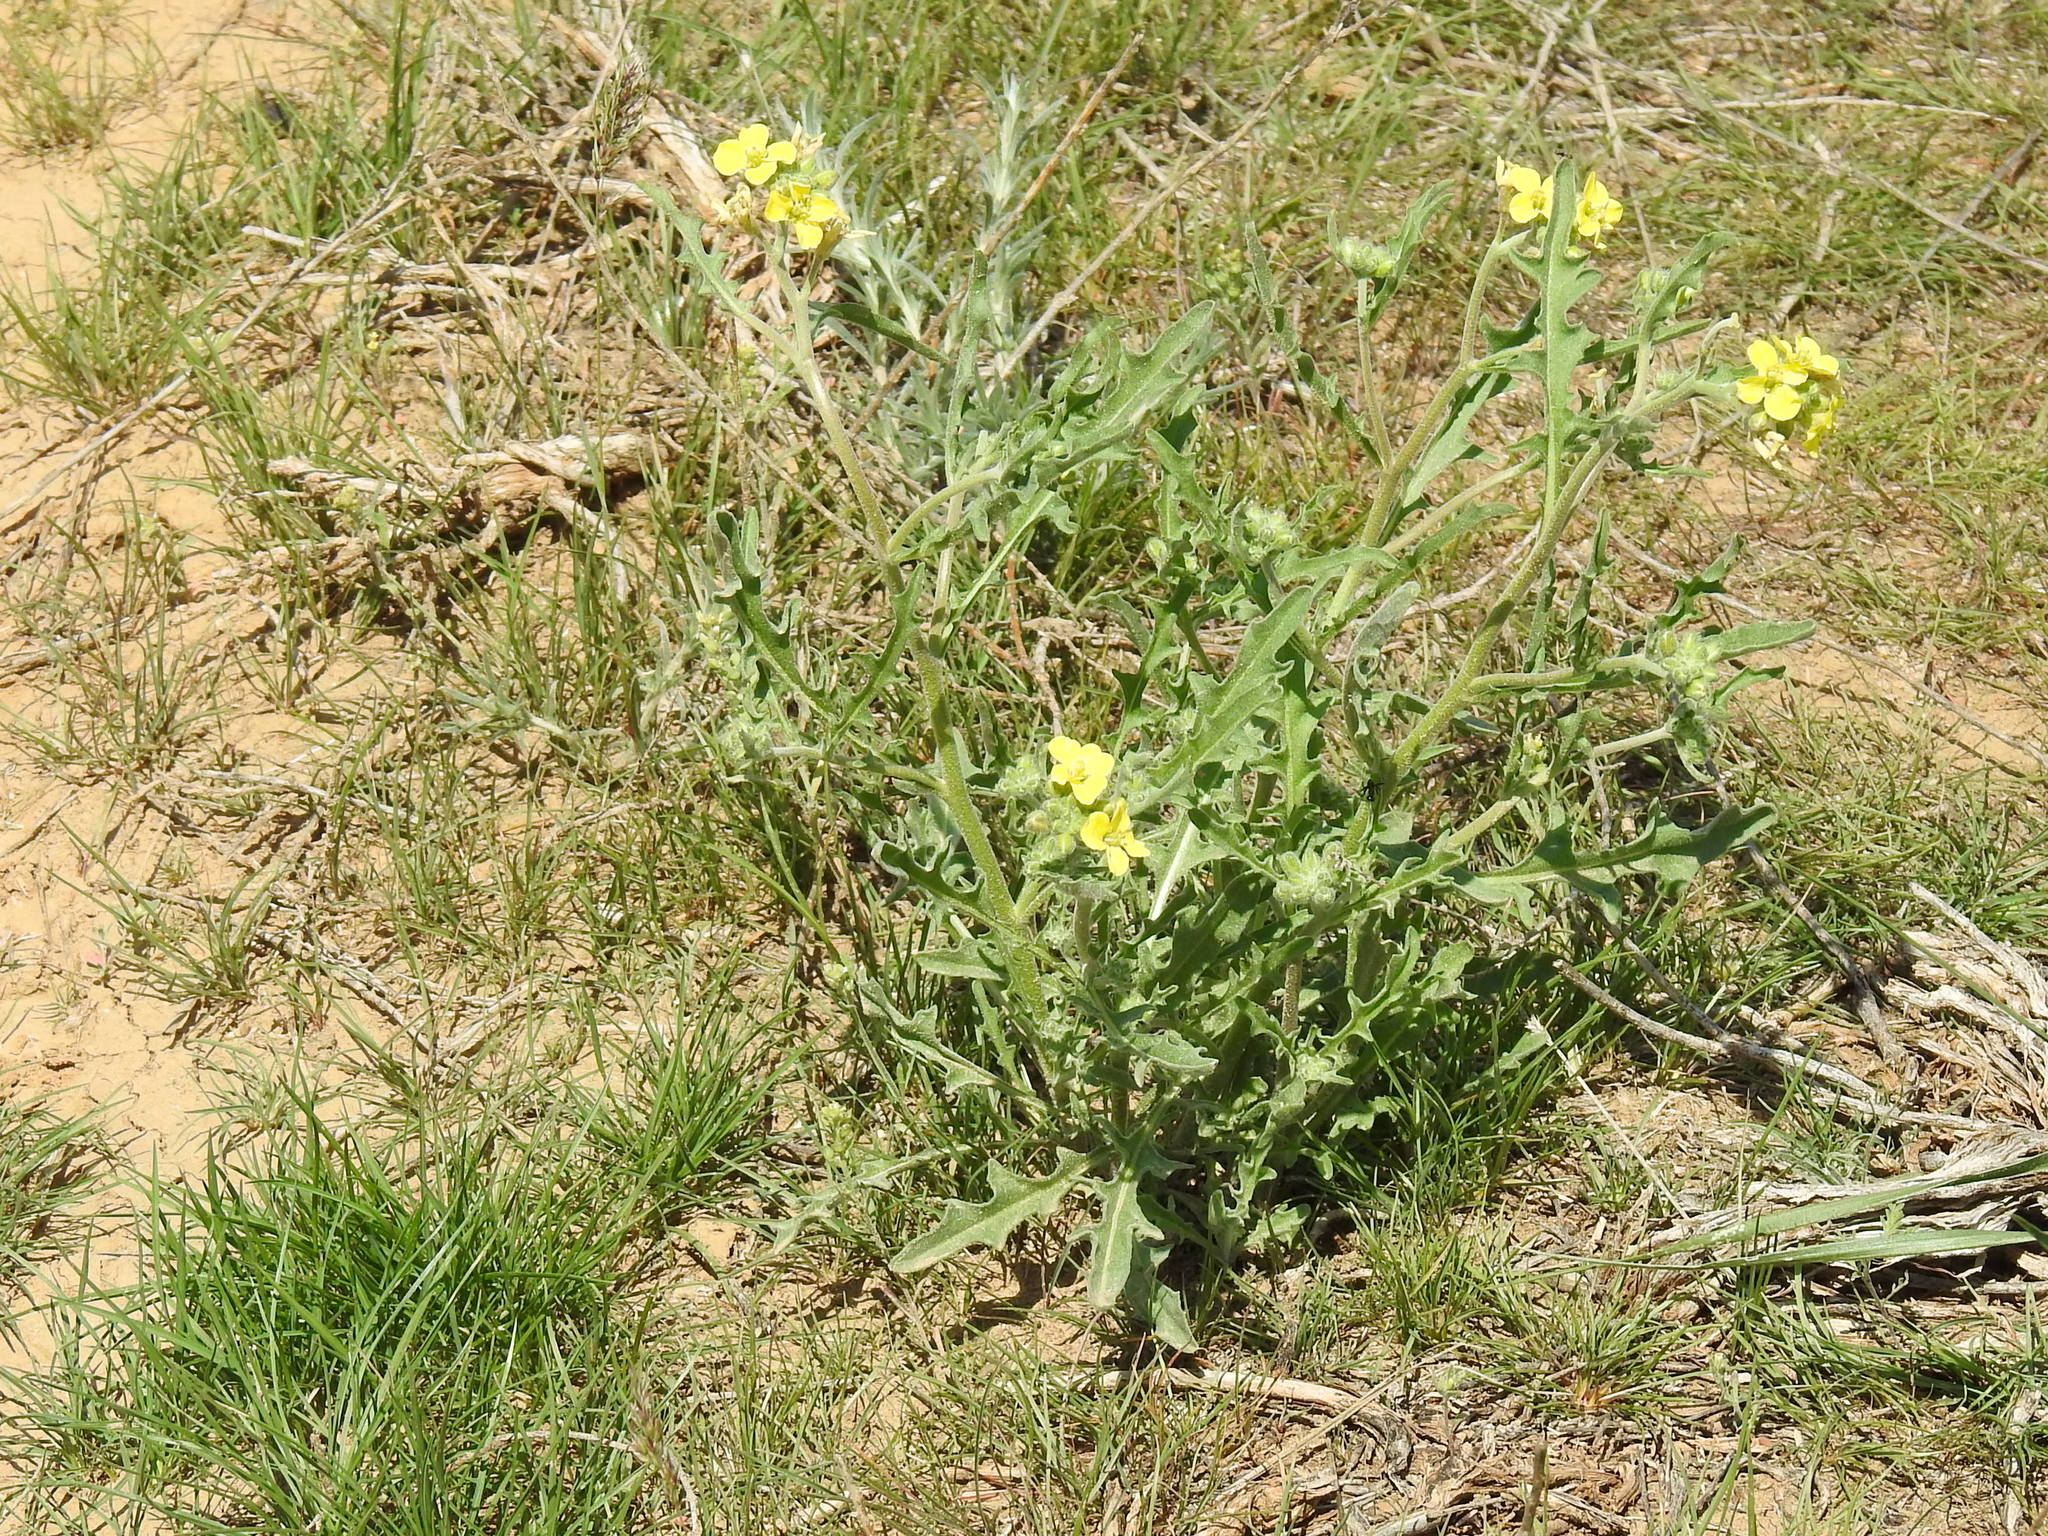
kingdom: Plantae
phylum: Tracheophyta
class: Magnoliopsida
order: Brassicales
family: Brassicaceae
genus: Sterigmostemum
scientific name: Sterigmostemum caspicum
